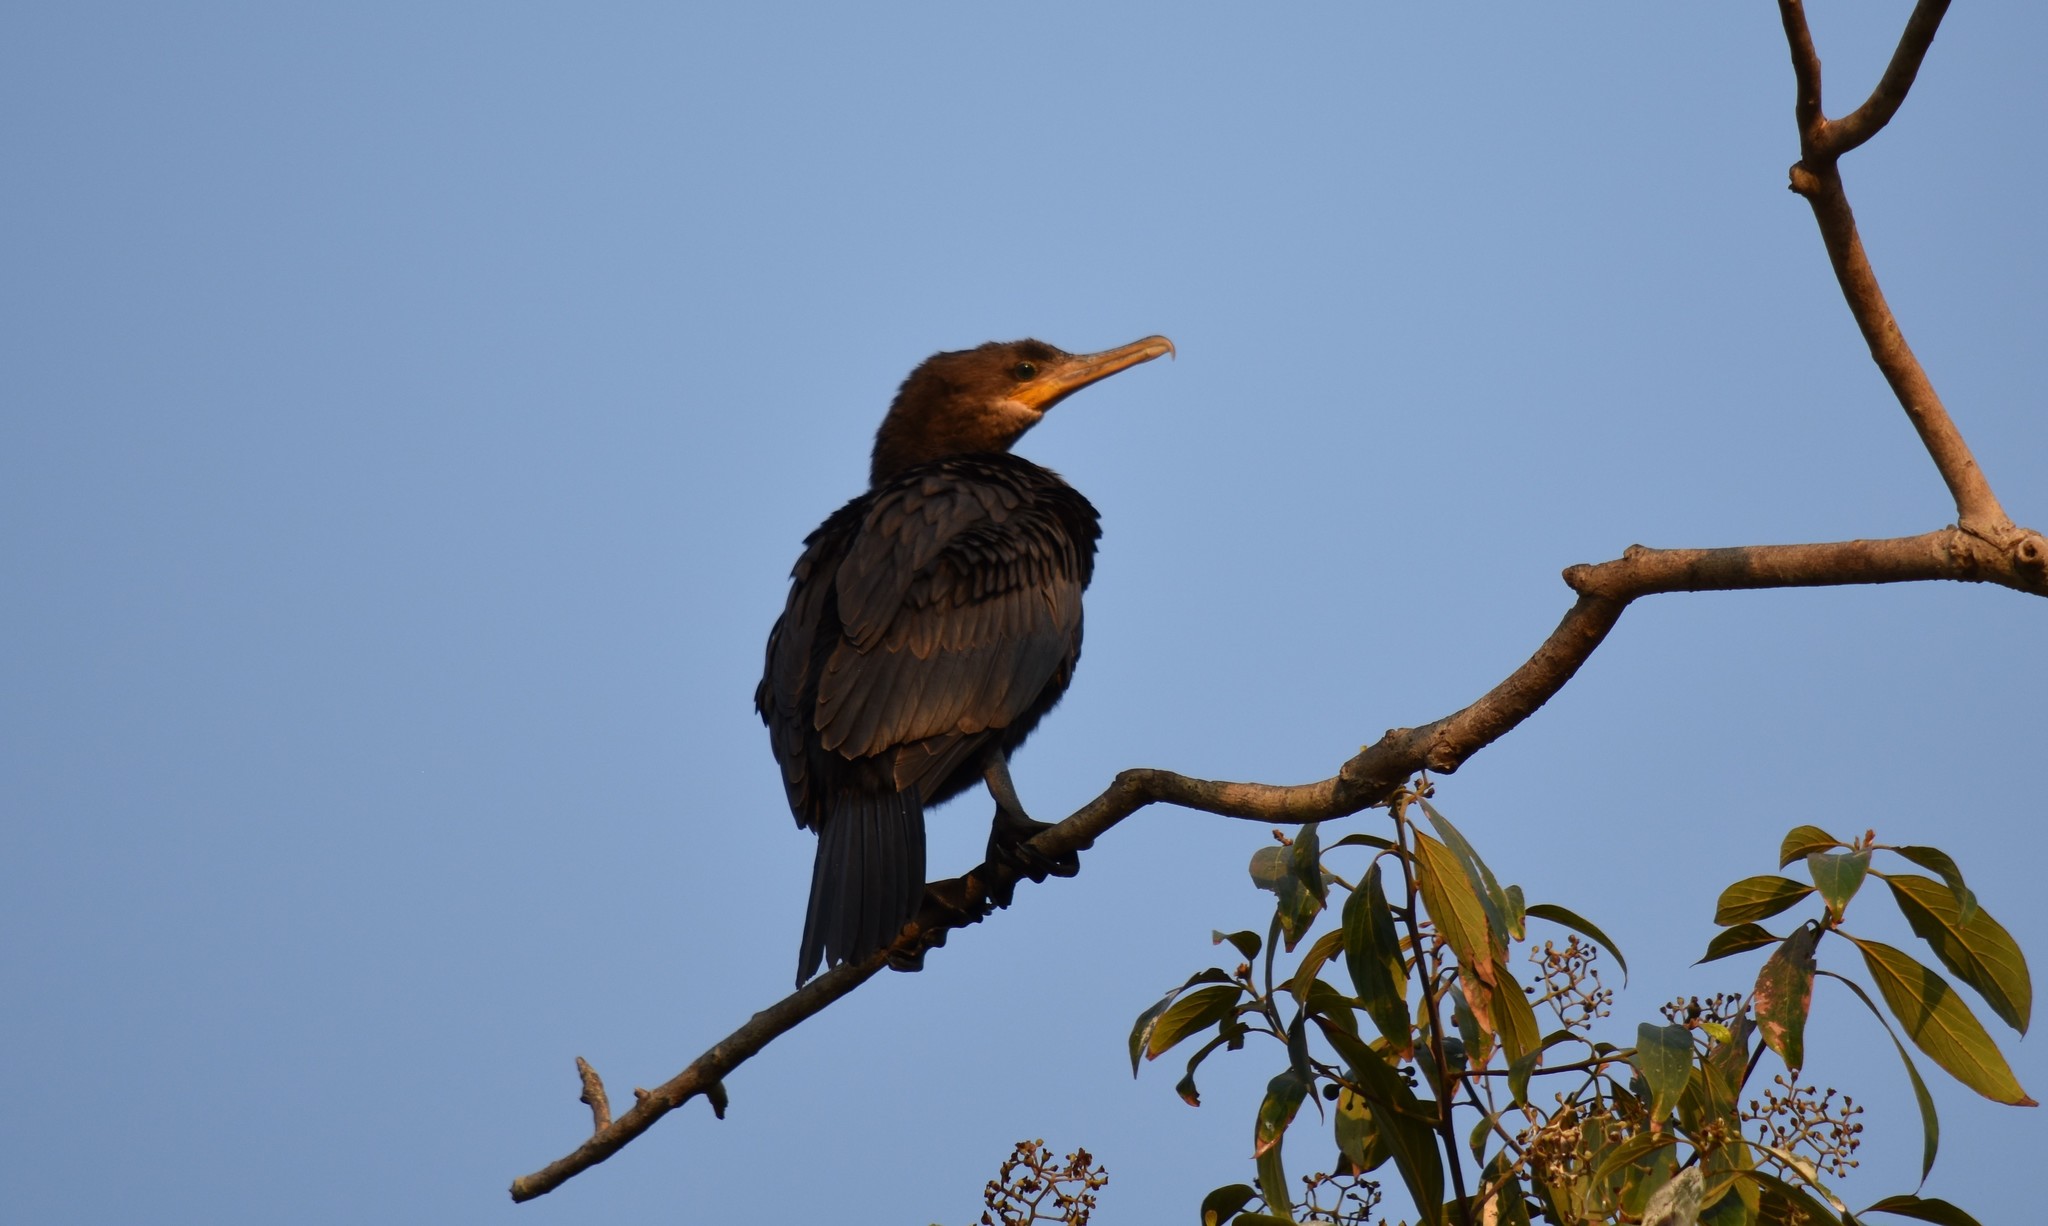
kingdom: Animalia
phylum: Chordata
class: Aves
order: Suliformes
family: Phalacrocoracidae
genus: Phalacrocorax
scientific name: Phalacrocorax brasilianus
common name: Neotropic cormorant
